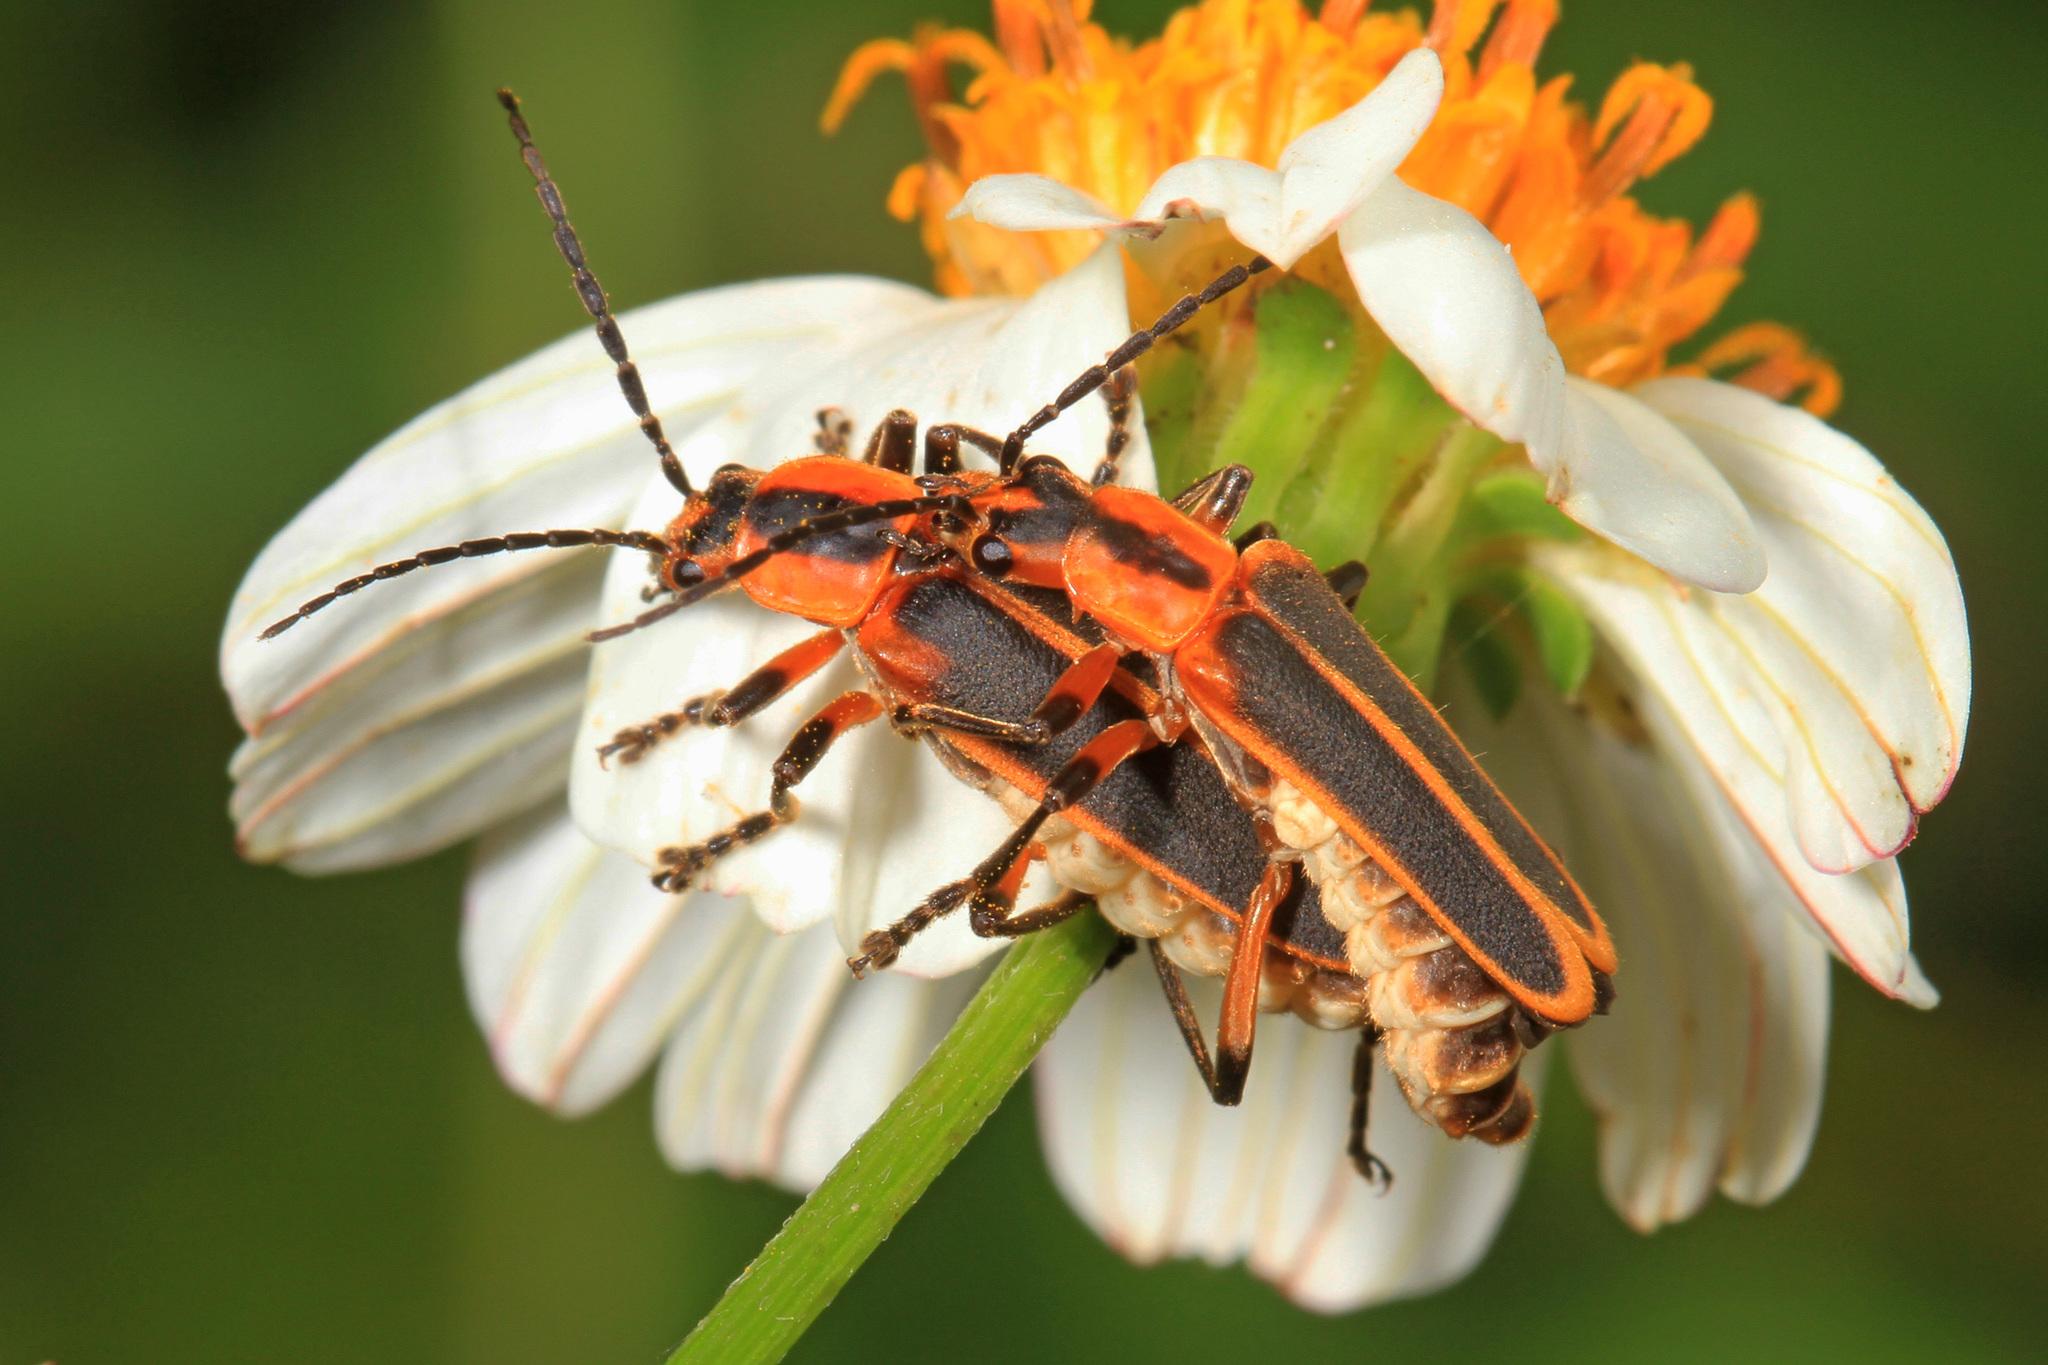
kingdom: Animalia
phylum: Arthropoda
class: Insecta
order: Coleoptera
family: Cantharidae
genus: Chauliognathus
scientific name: Chauliognathus marginatus
